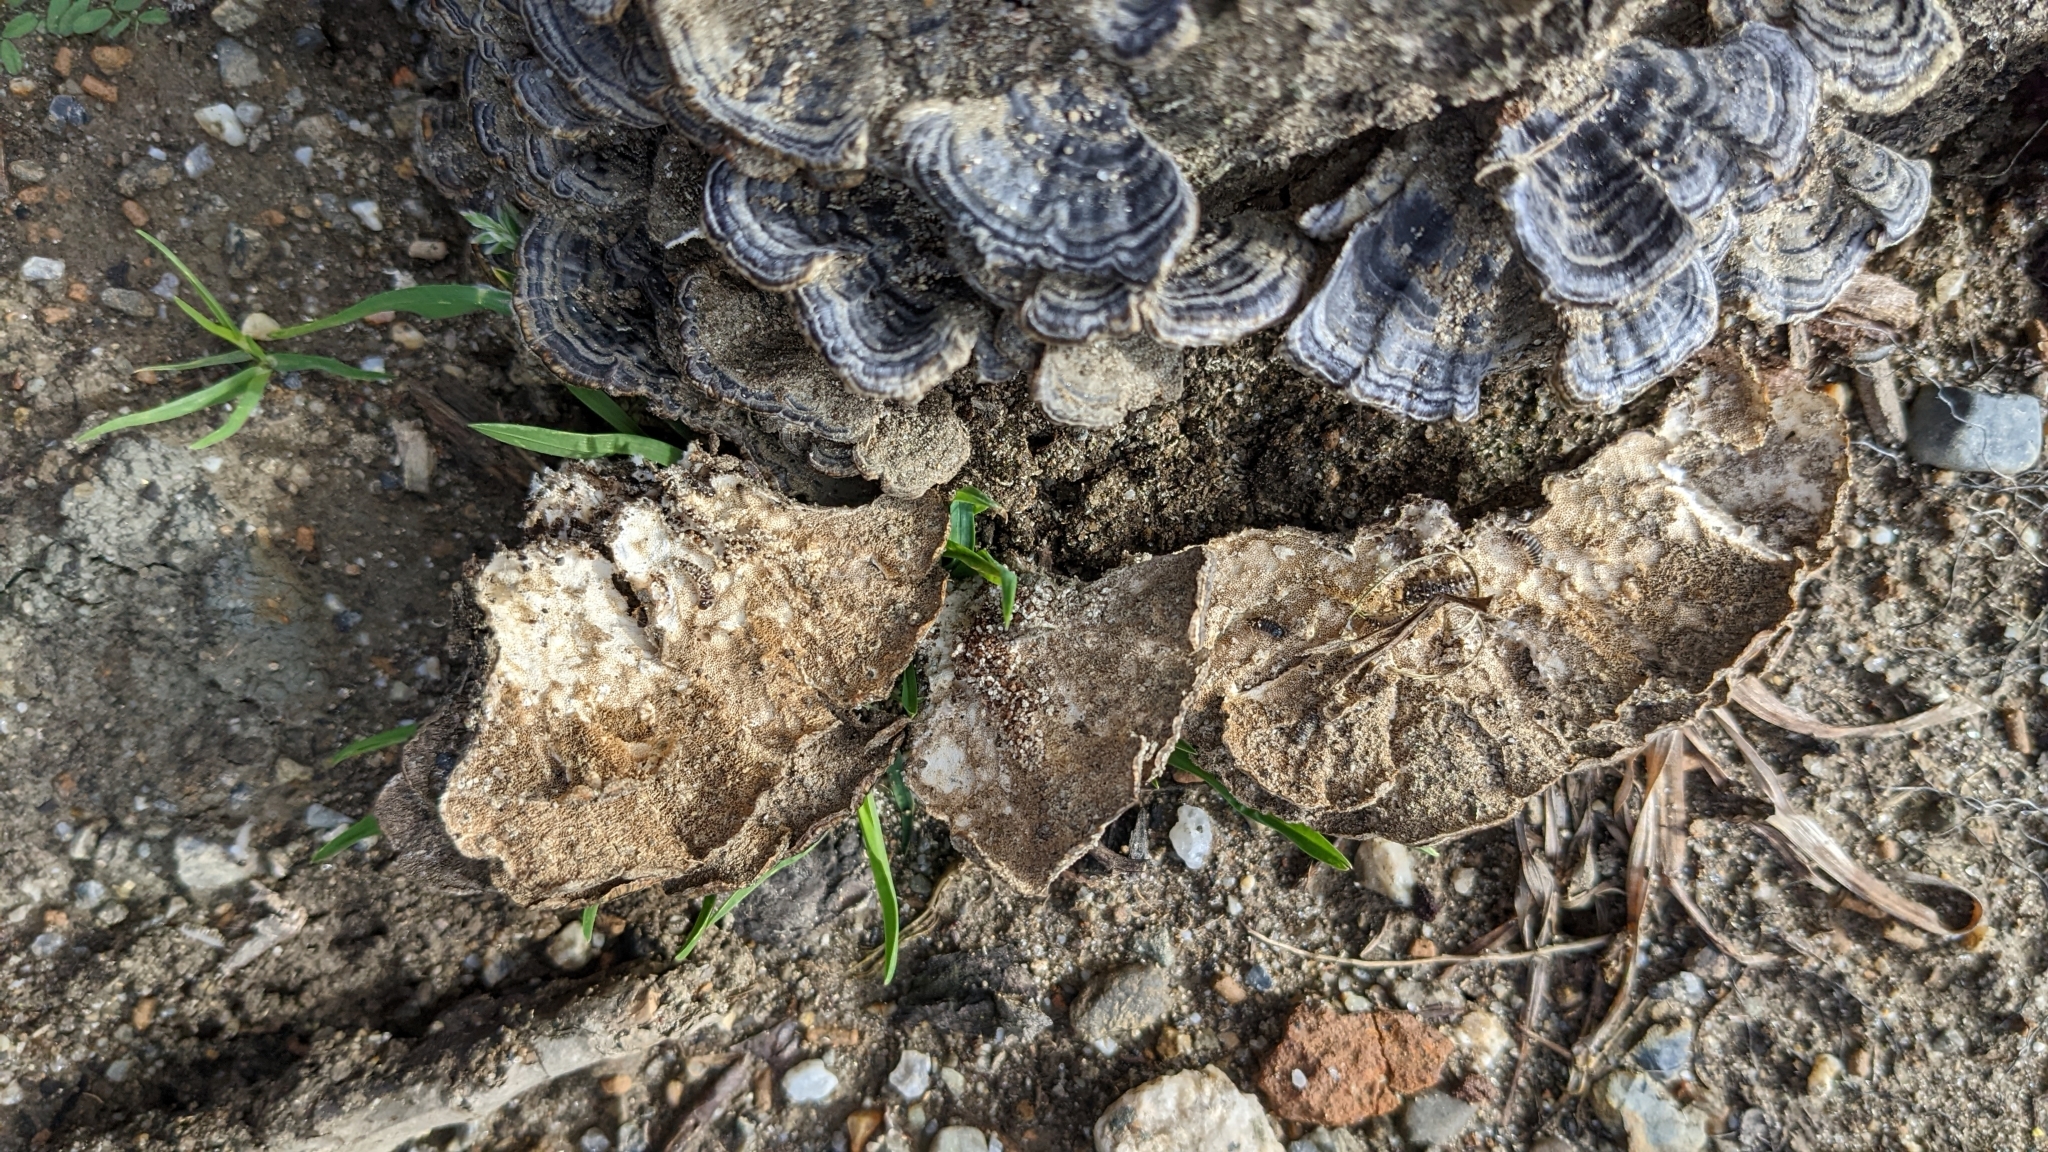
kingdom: Fungi
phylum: Basidiomycota
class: Agaricomycetes
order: Polyporales
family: Polyporaceae
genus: Trametes
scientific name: Trametes versicolor
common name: Turkeytail
